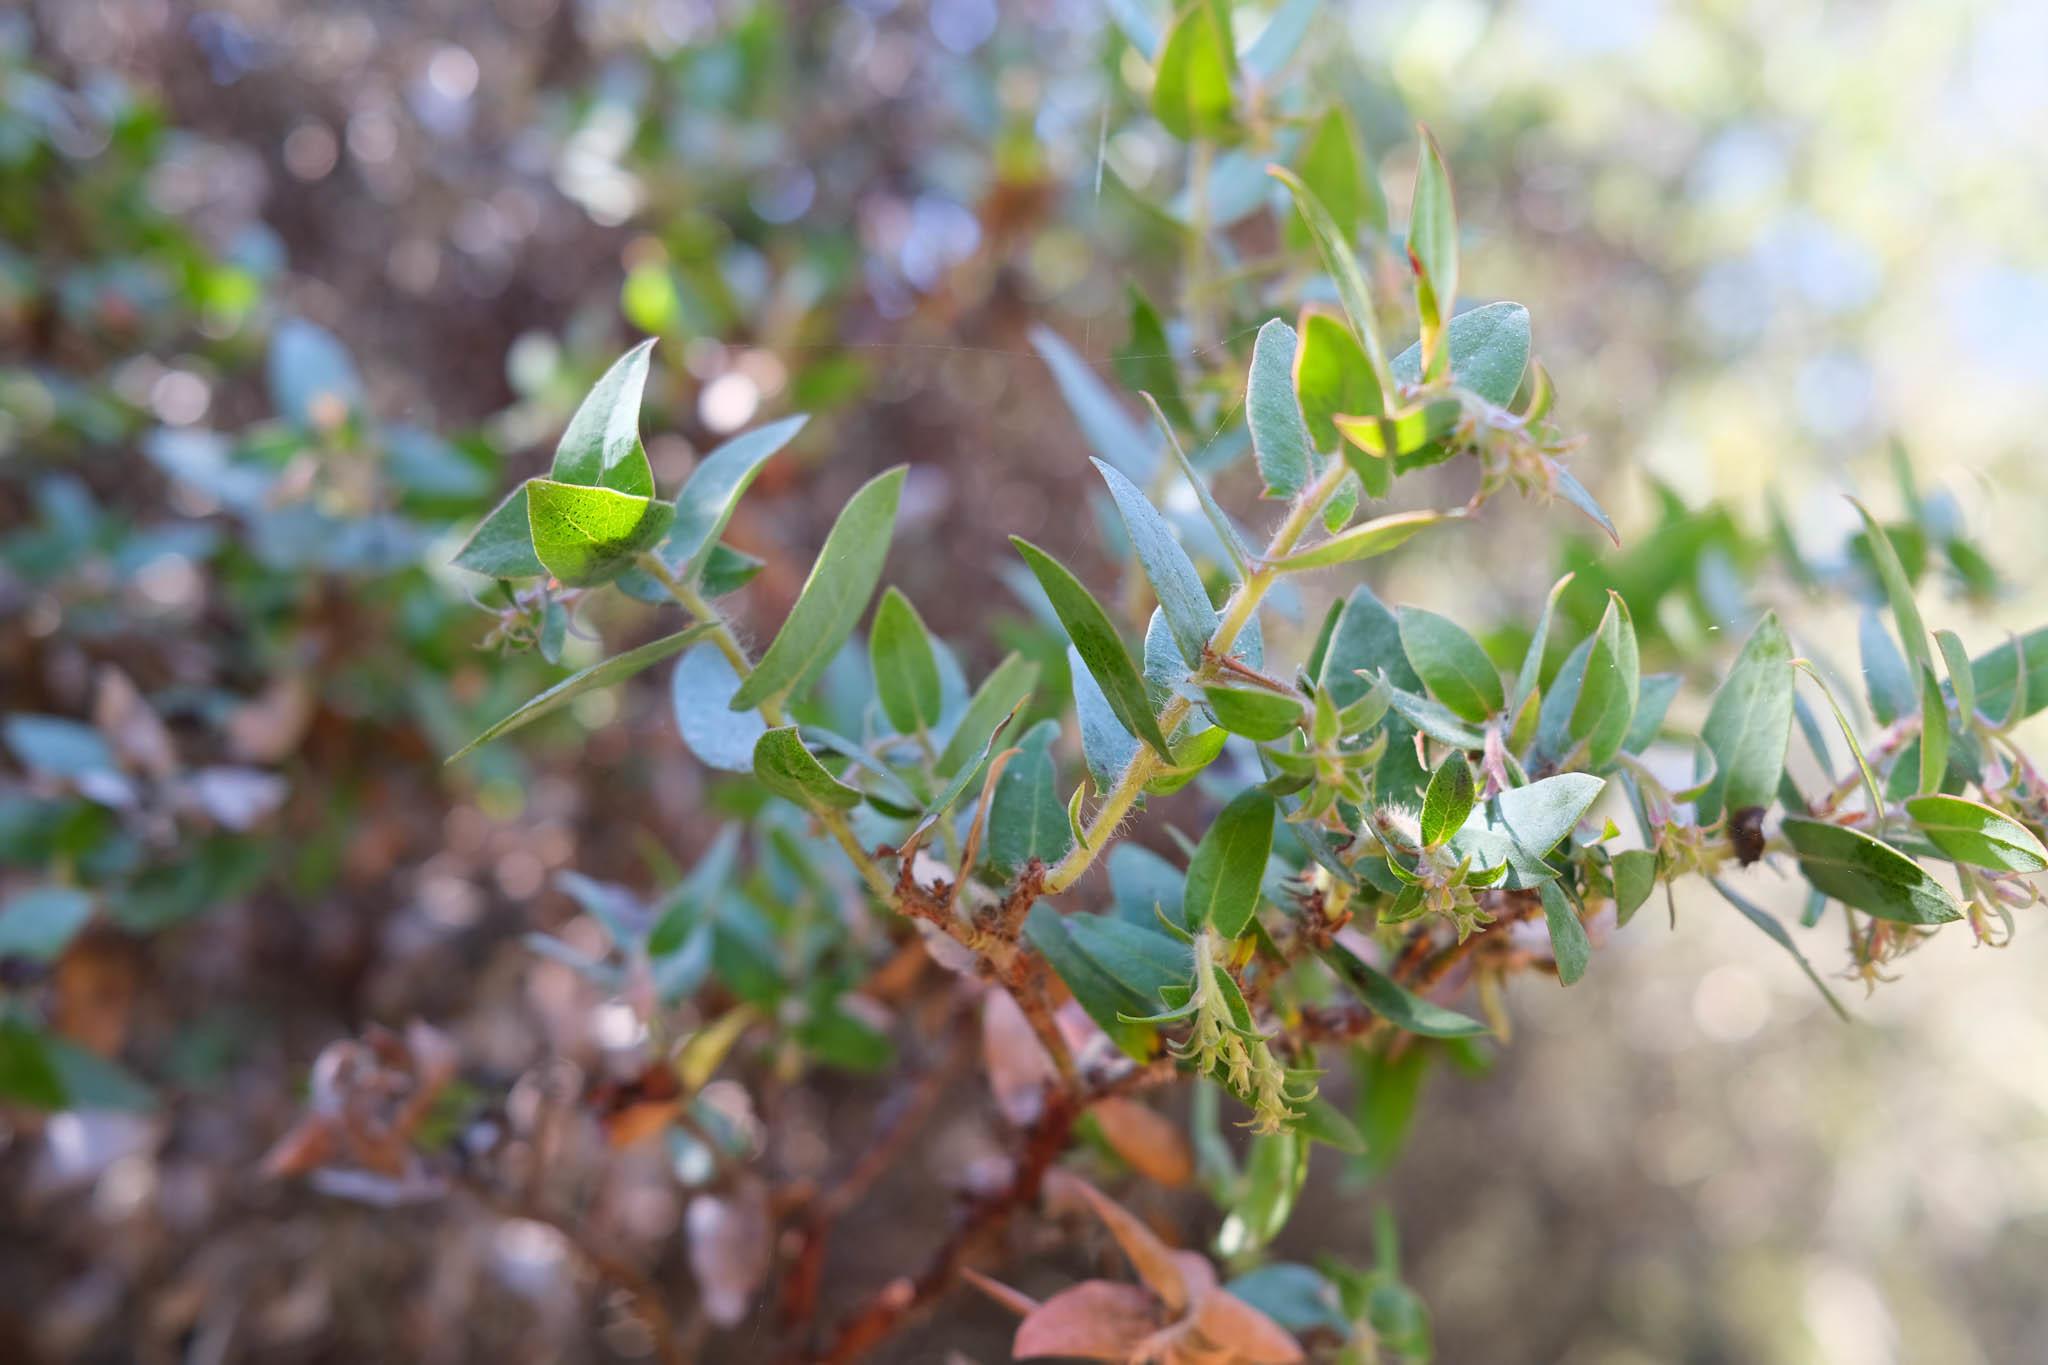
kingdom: Plantae
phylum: Tracheophyta
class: Magnoliopsida
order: Ericales
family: Ericaceae
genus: Arctostaphylos
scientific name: Arctostaphylos pajaroensis
